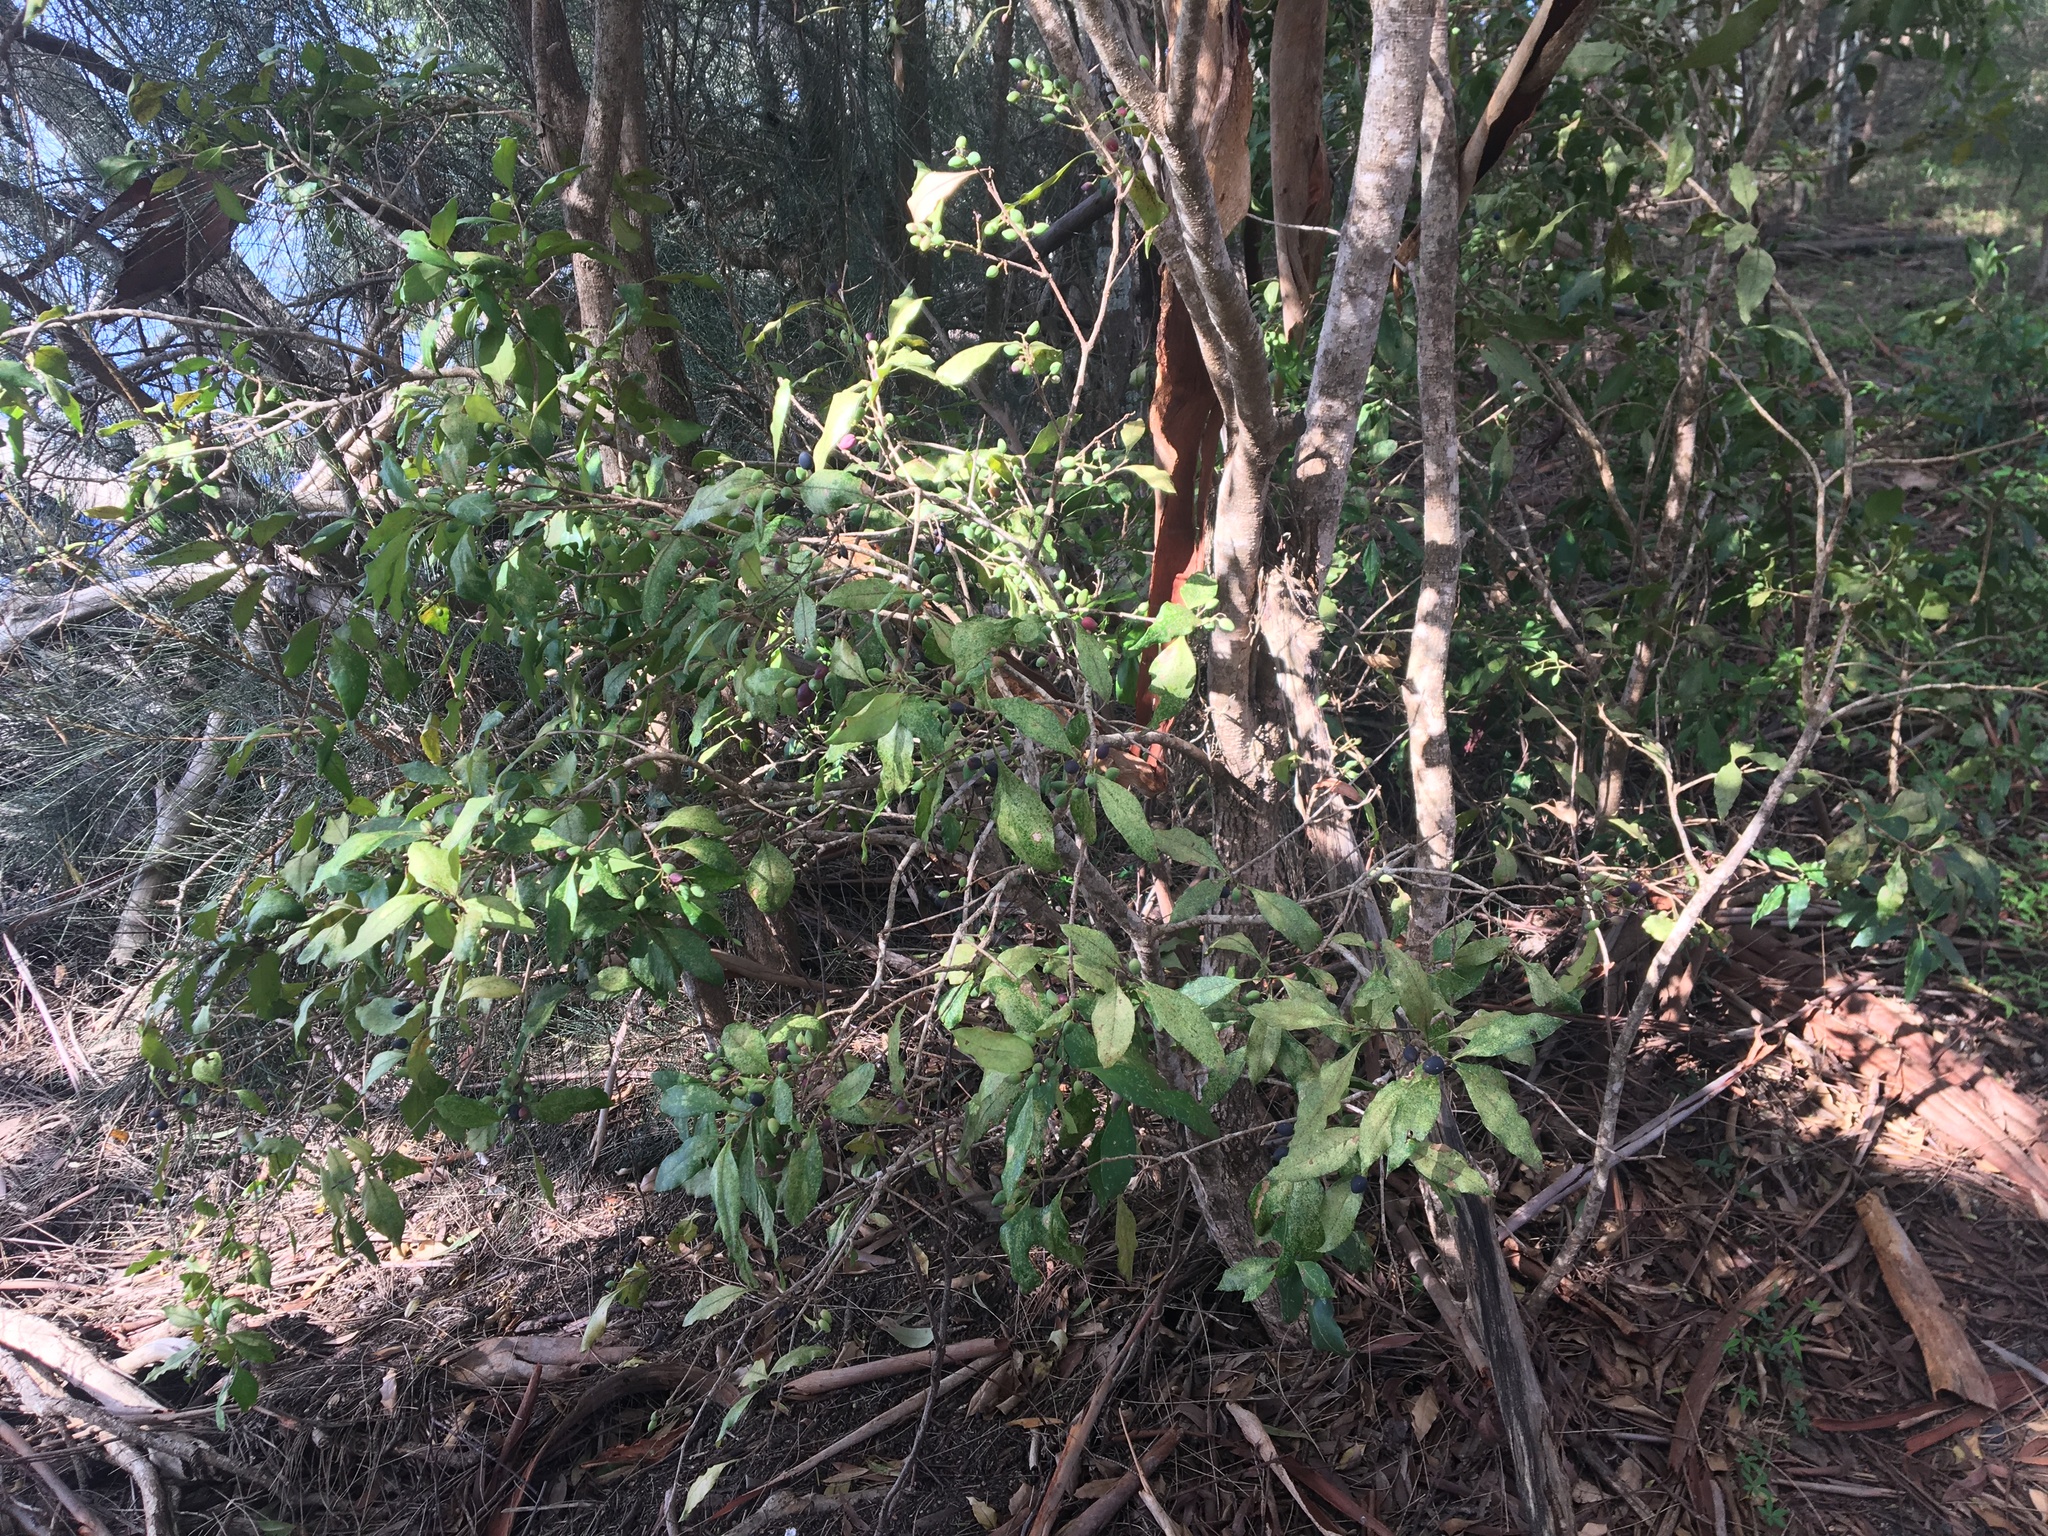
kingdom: Plantae
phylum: Tracheophyta
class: Magnoliopsida
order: Lamiales
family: Oleaceae
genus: Notelaea
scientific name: Notelaea longifolia
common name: Large mock olive
